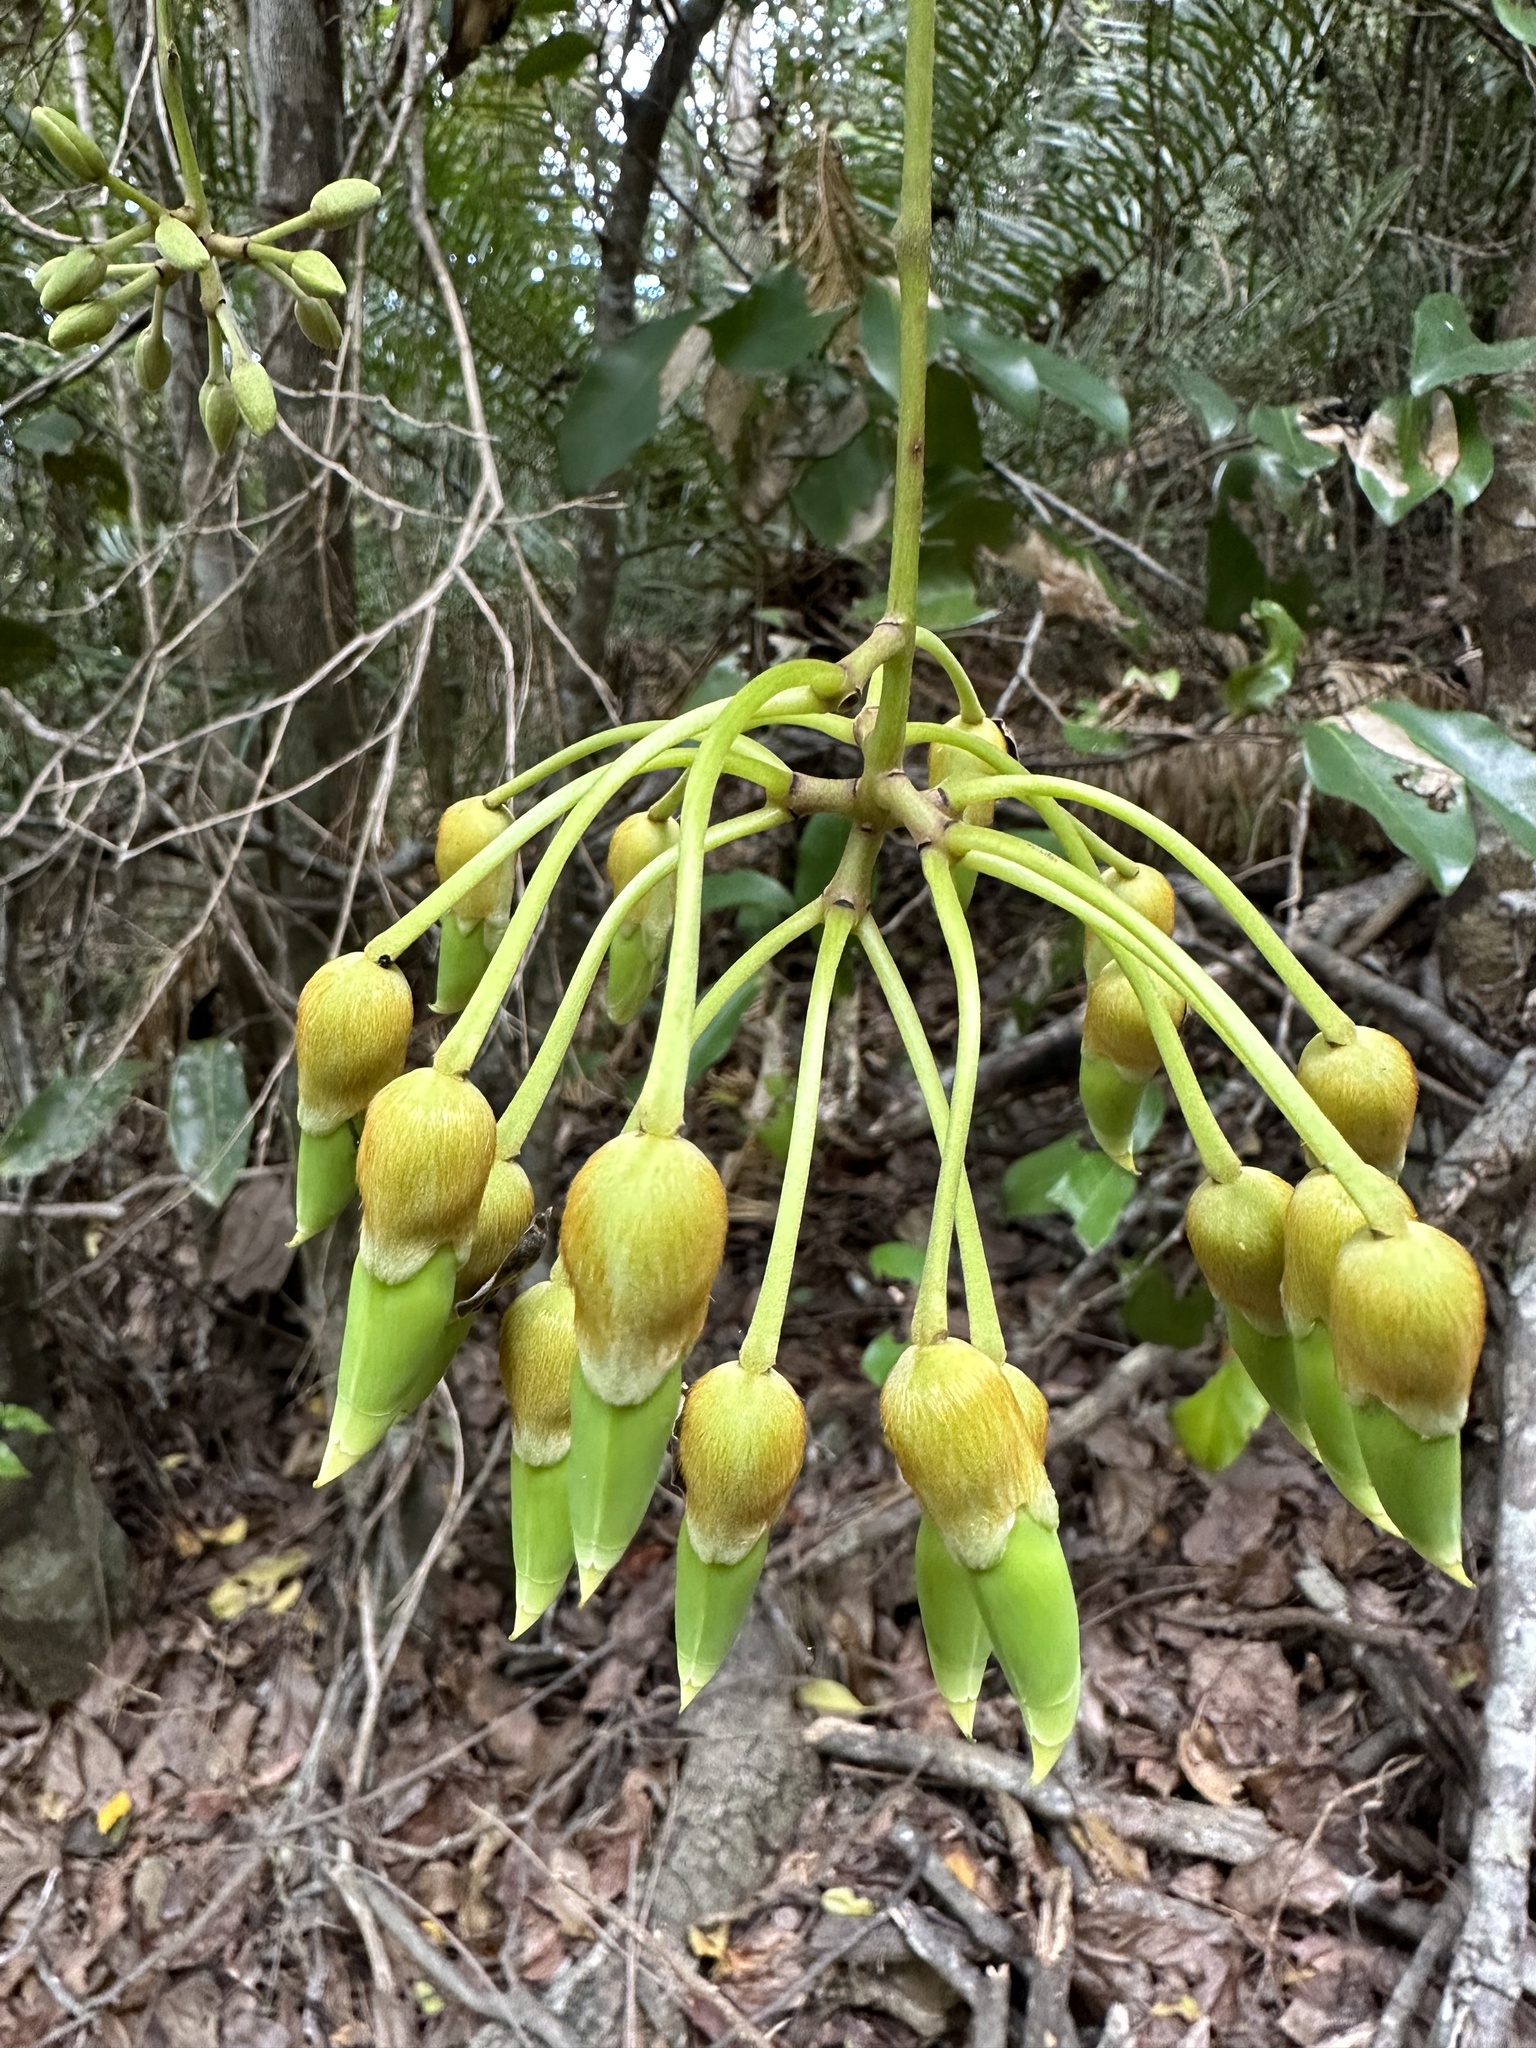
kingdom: Plantae
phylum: Tracheophyta
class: Magnoliopsida
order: Fabales
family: Fabaceae
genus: Mucuna
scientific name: Mucuna gigantea
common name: Black-bean
